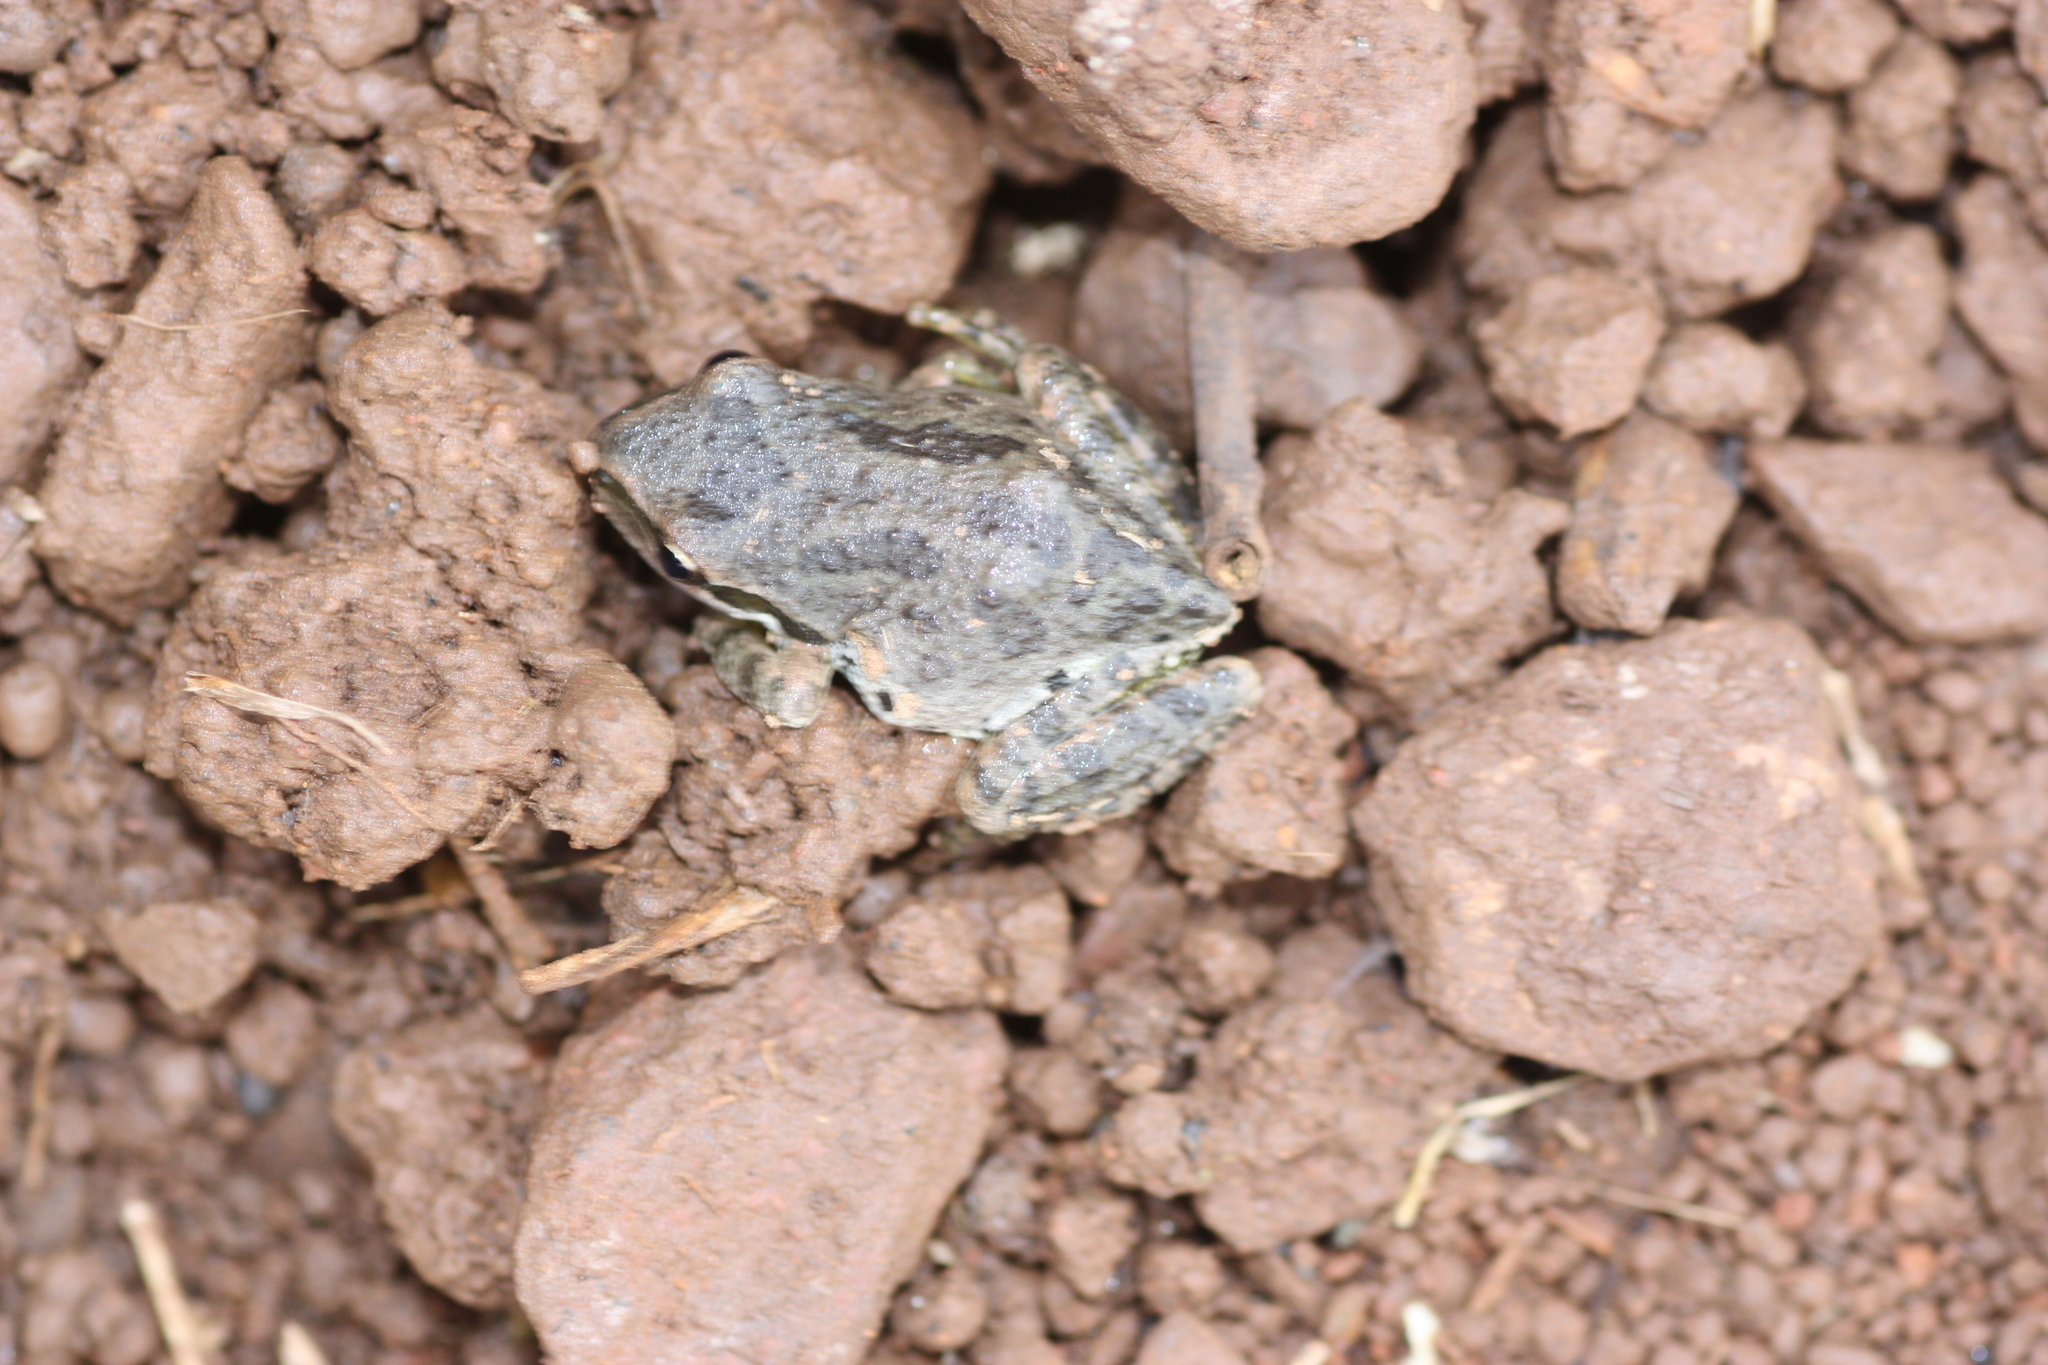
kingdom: Animalia
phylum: Chordata
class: Amphibia
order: Anura
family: Hylidae
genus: Pseudacris
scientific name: Pseudacris regilla
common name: Pacific chorus frog
